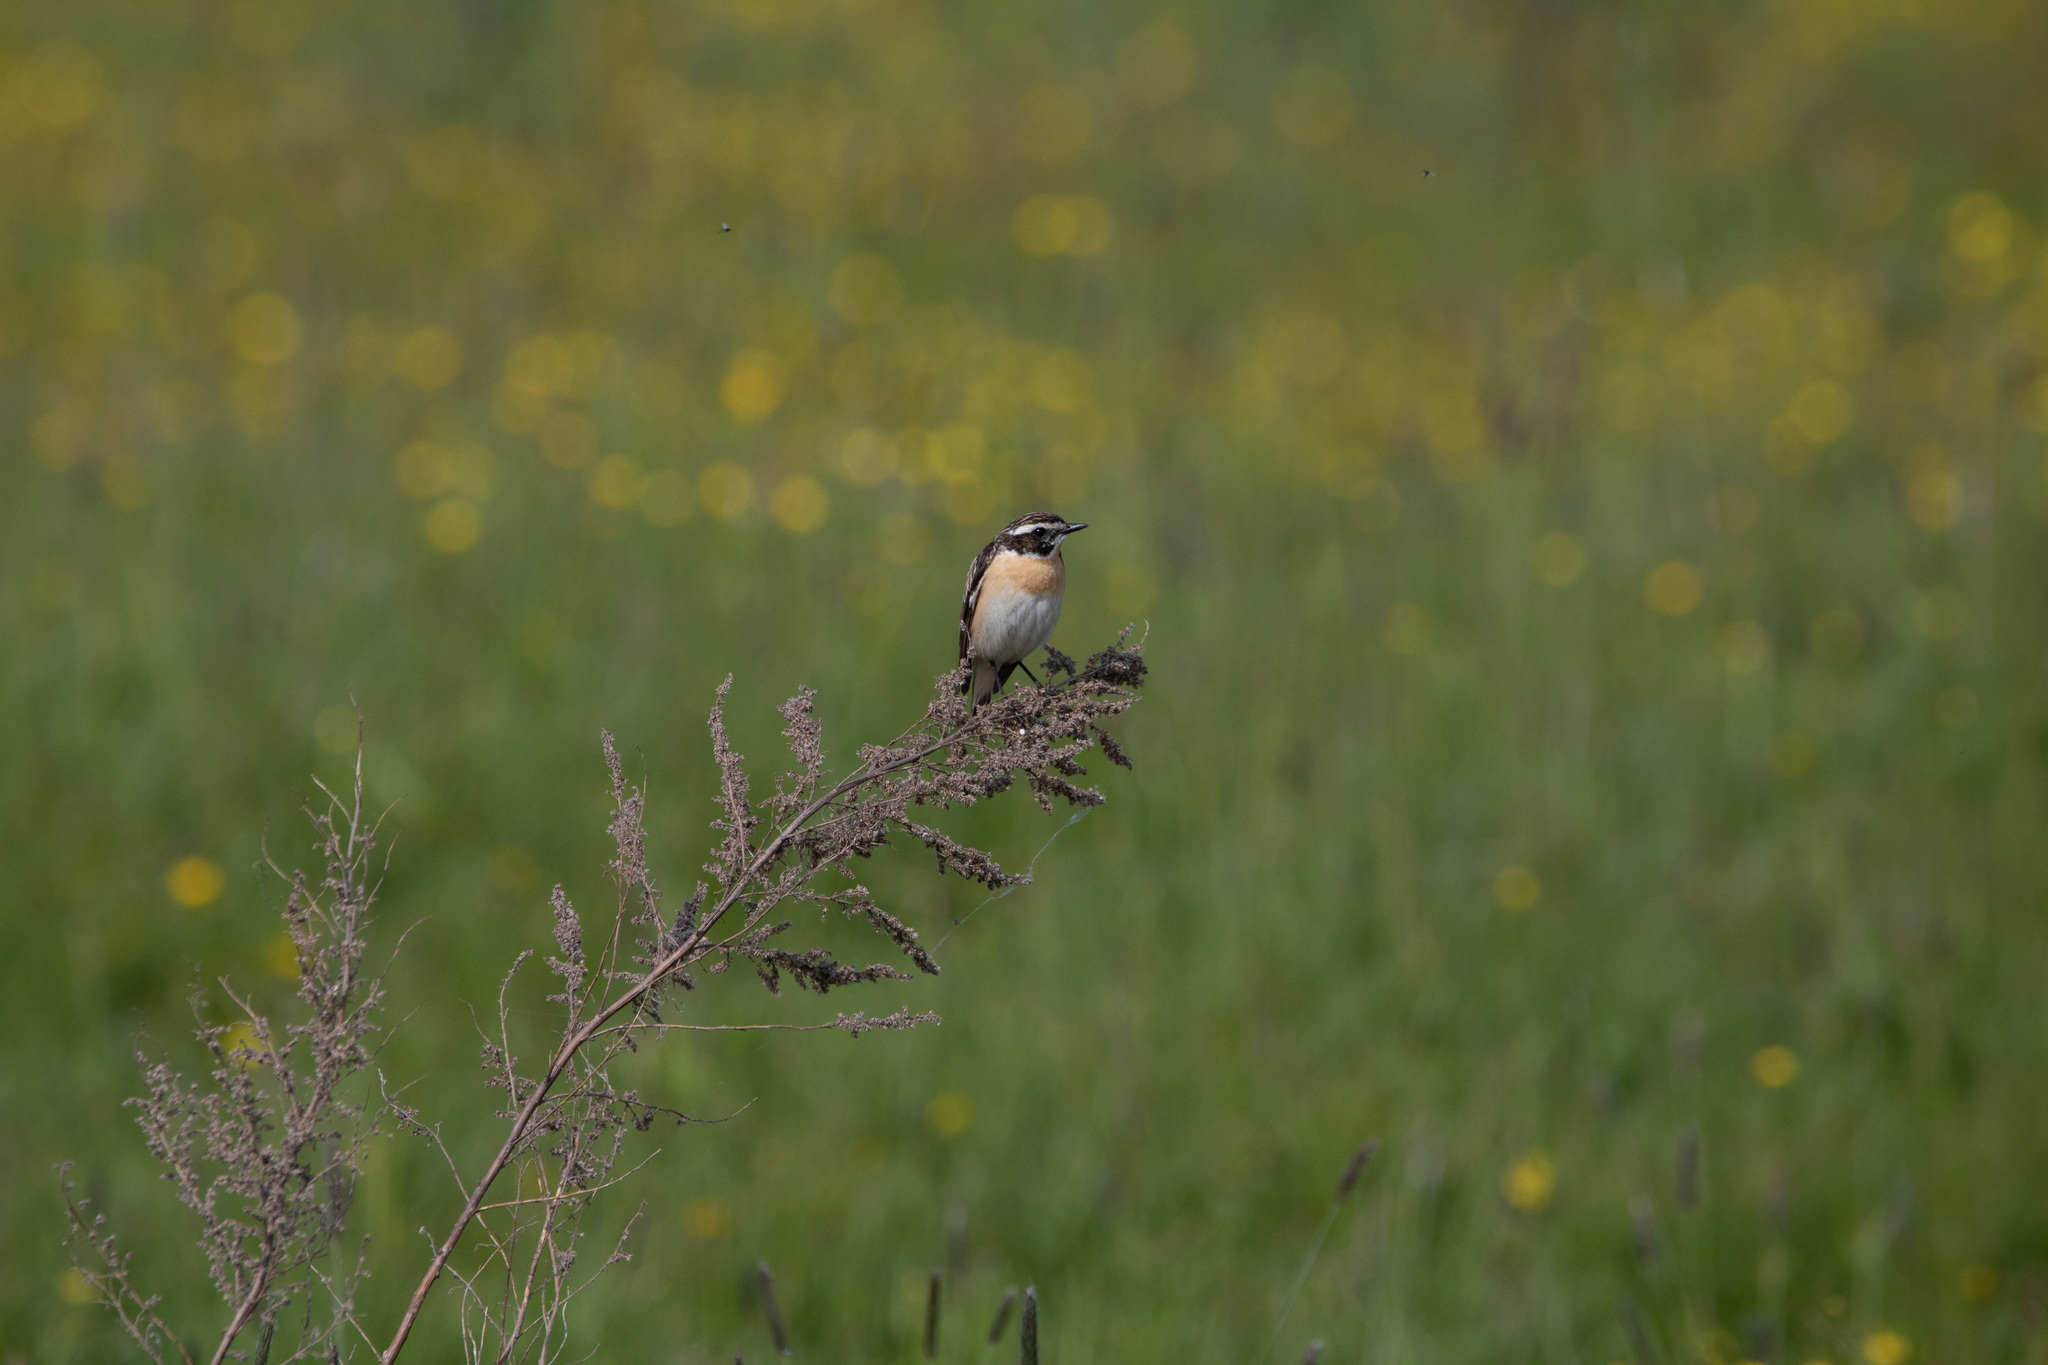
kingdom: Animalia
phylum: Chordata
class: Aves
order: Passeriformes
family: Muscicapidae
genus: Saxicola
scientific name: Saxicola rubetra
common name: Whinchat
